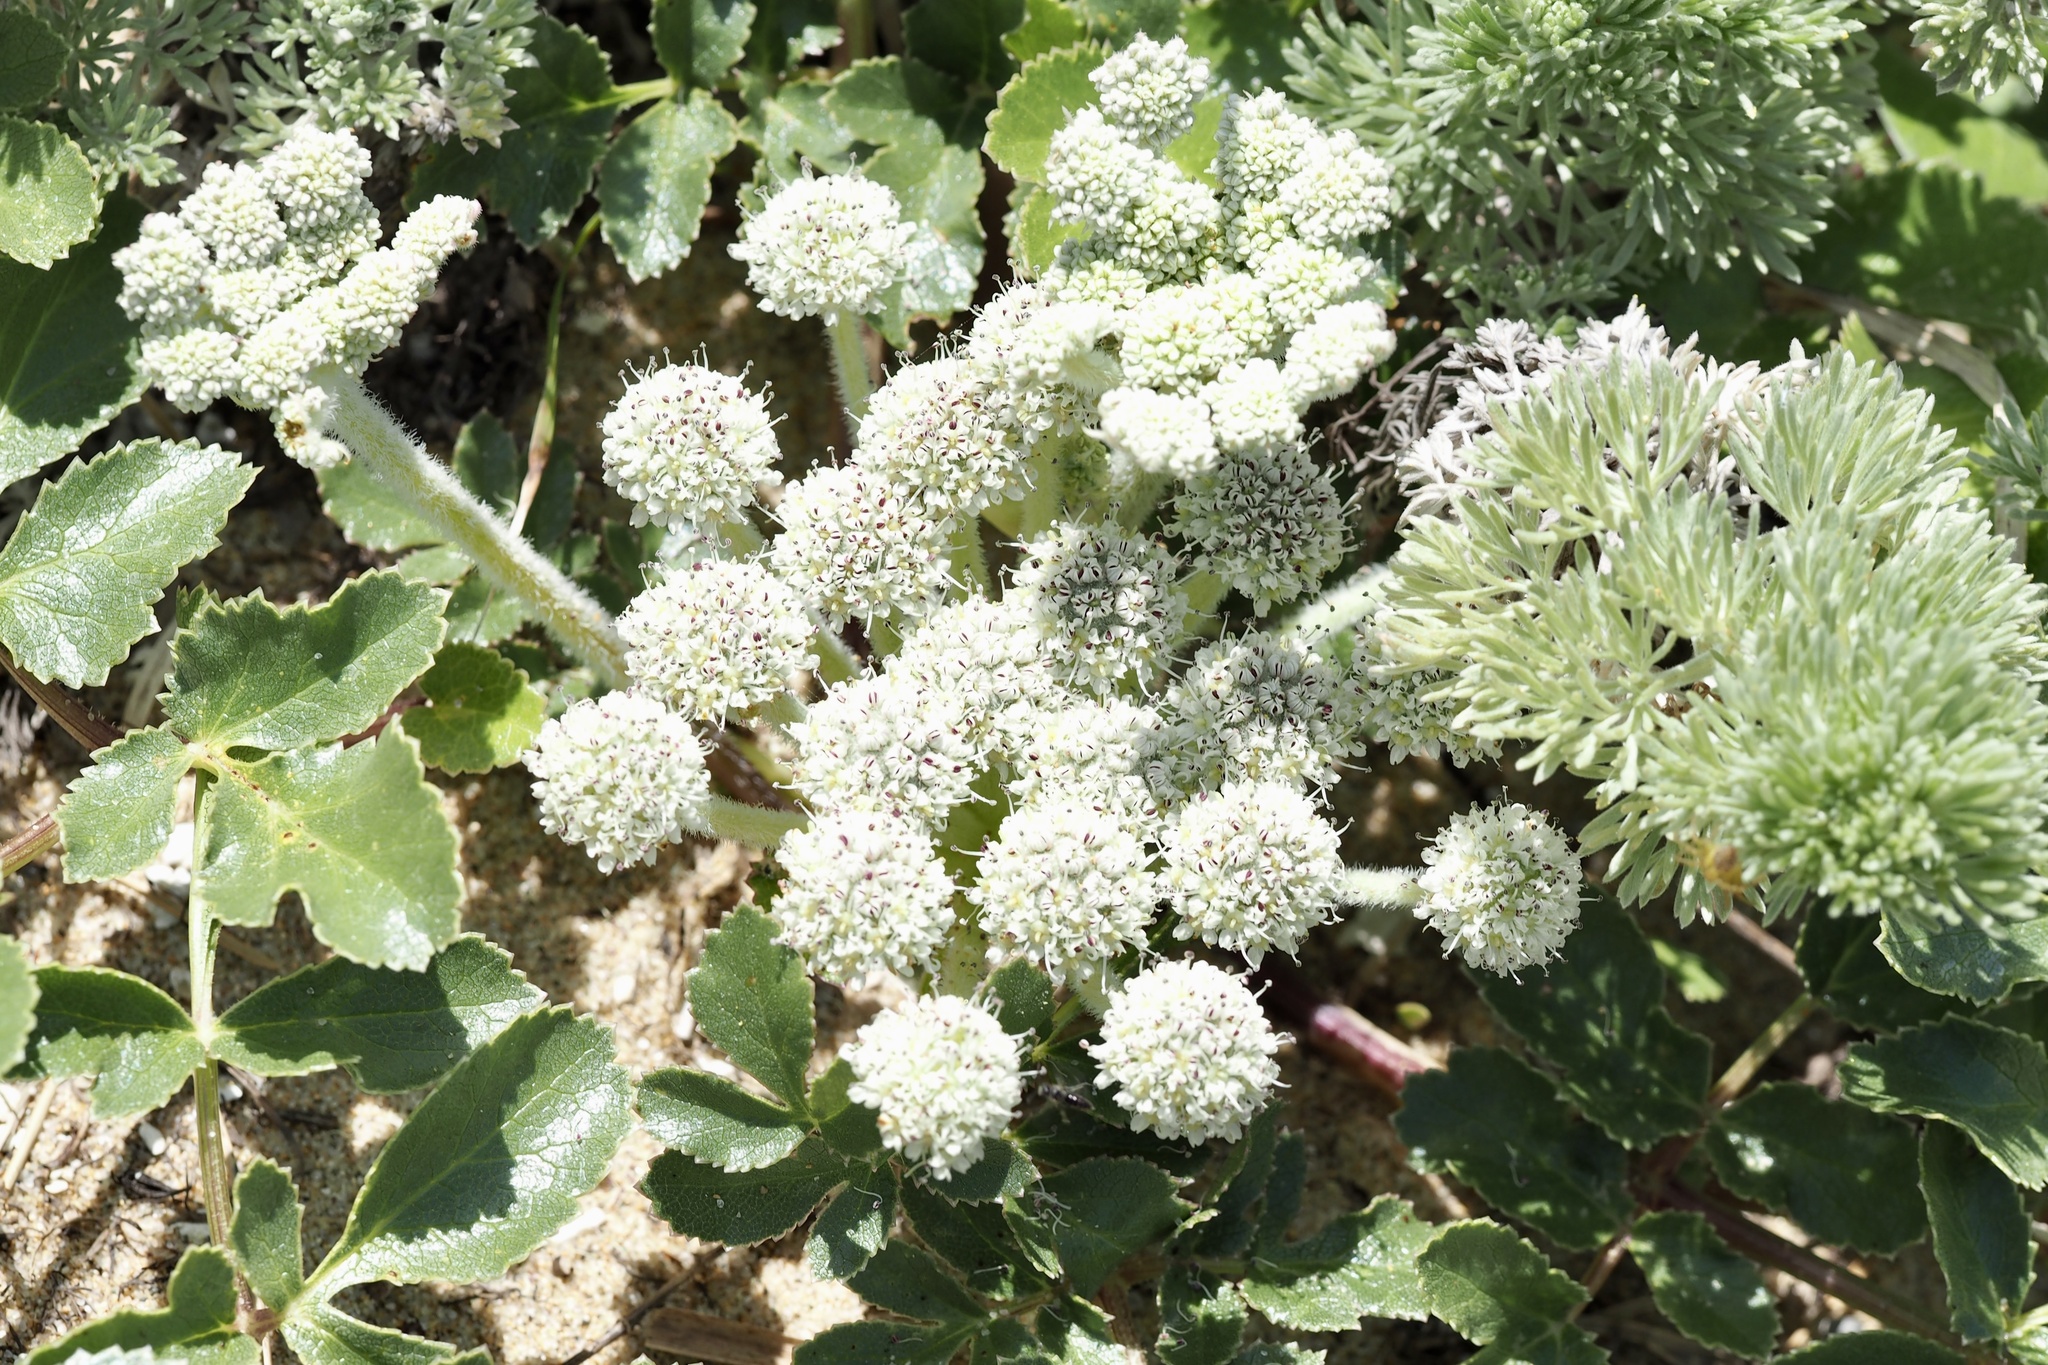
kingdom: Plantae
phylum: Tracheophyta
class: Magnoliopsida
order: Apiales
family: Apiaceae
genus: Glehnia
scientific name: Glehnia littoralis
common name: Beach silvertop
